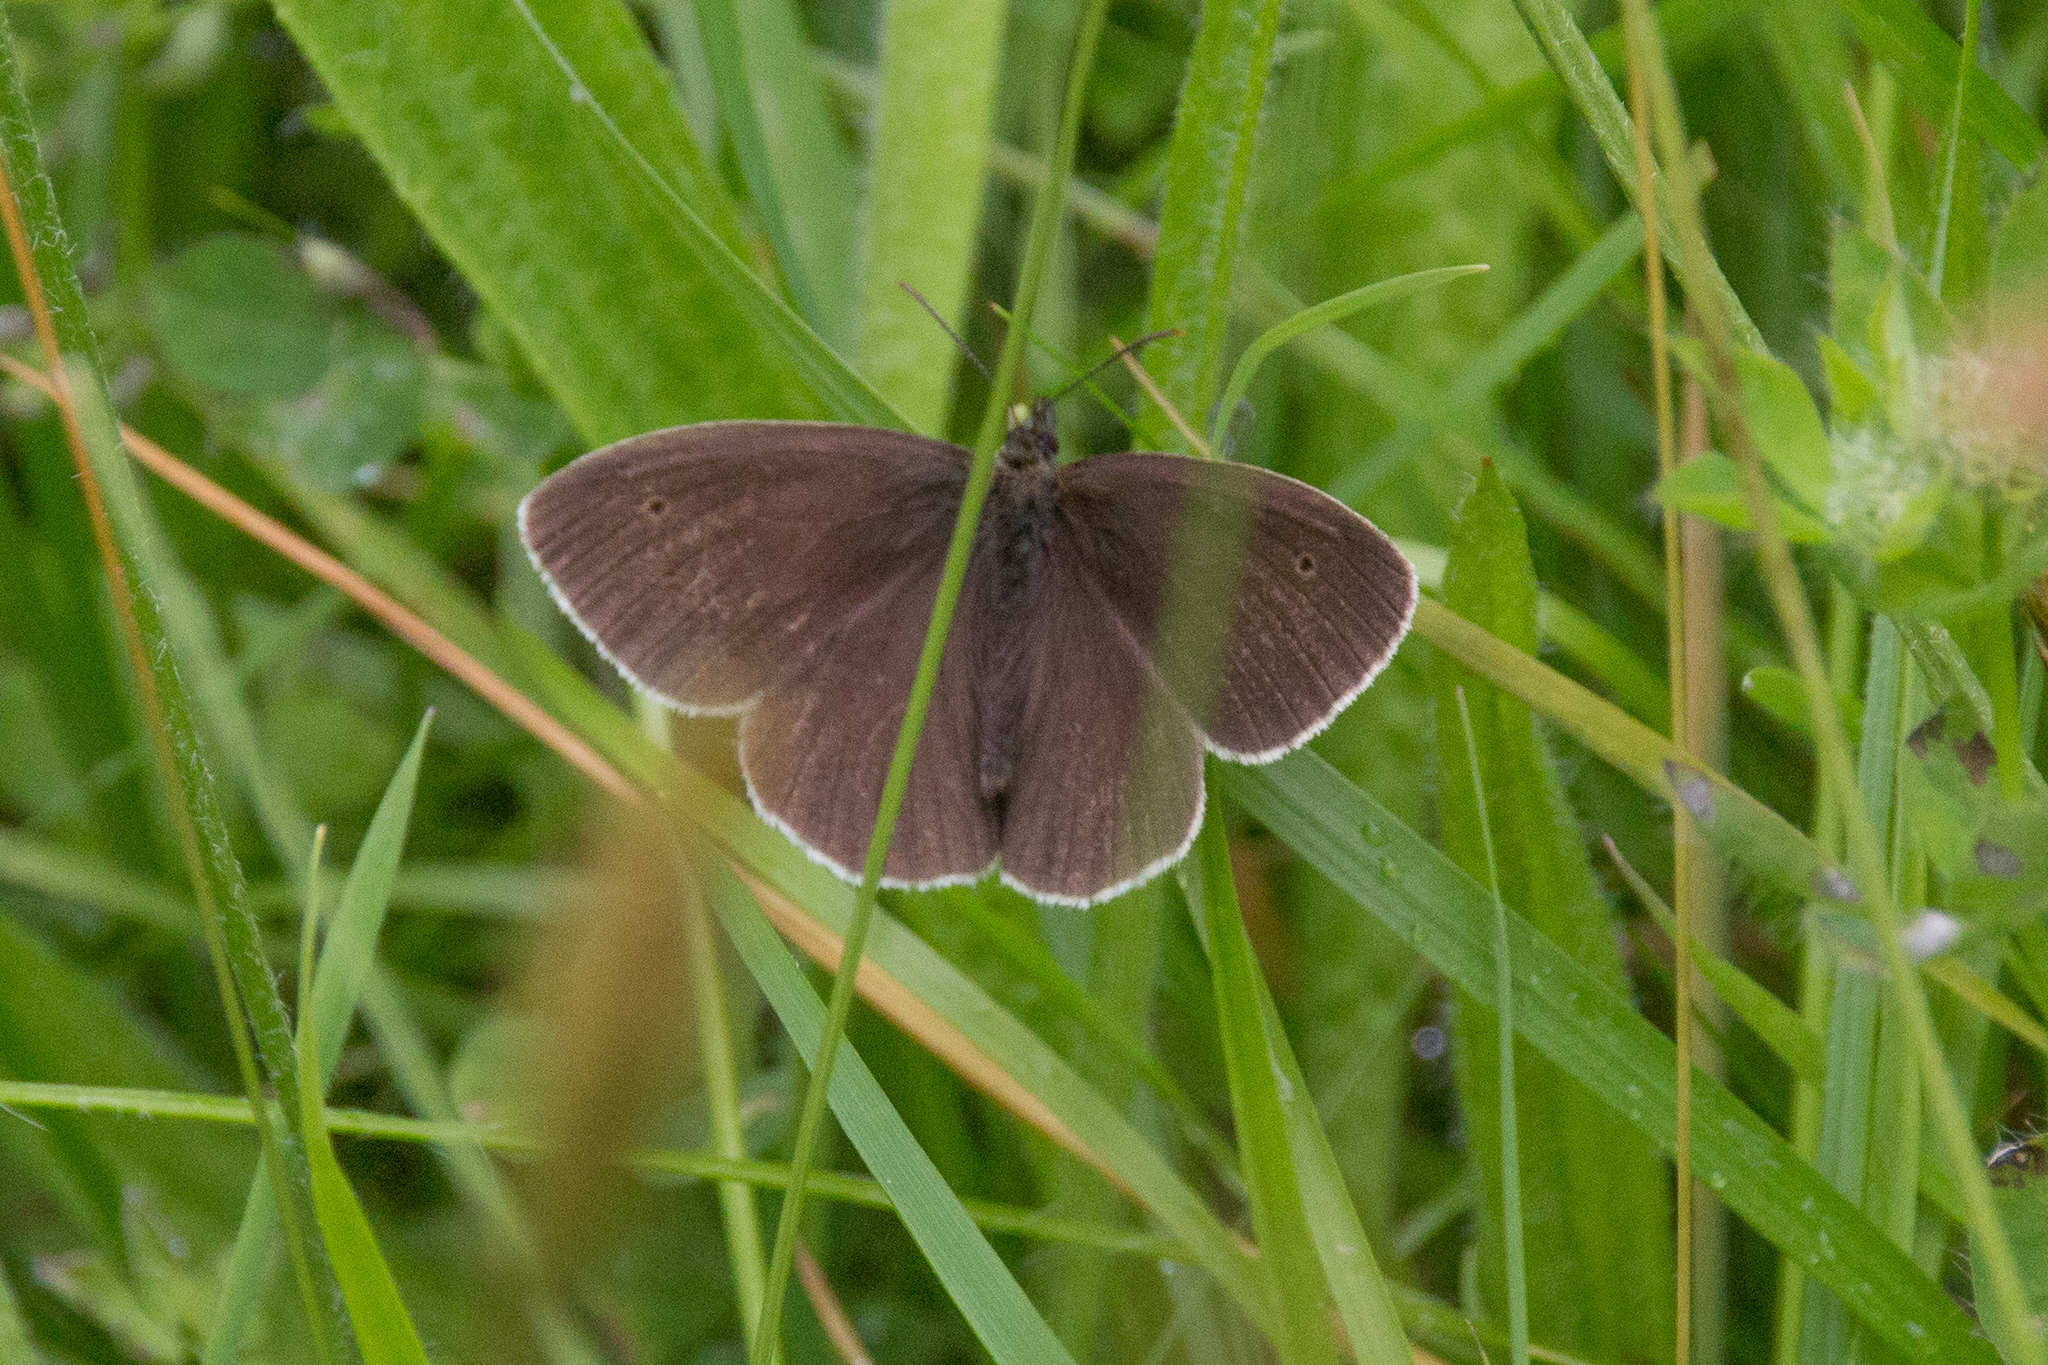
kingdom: Animalia
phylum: Arthropoda
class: Insecta
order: Lepidoptera
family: Nymphalidae
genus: Aphantopus
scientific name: Aphantopus hyperantus
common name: Ringlet
